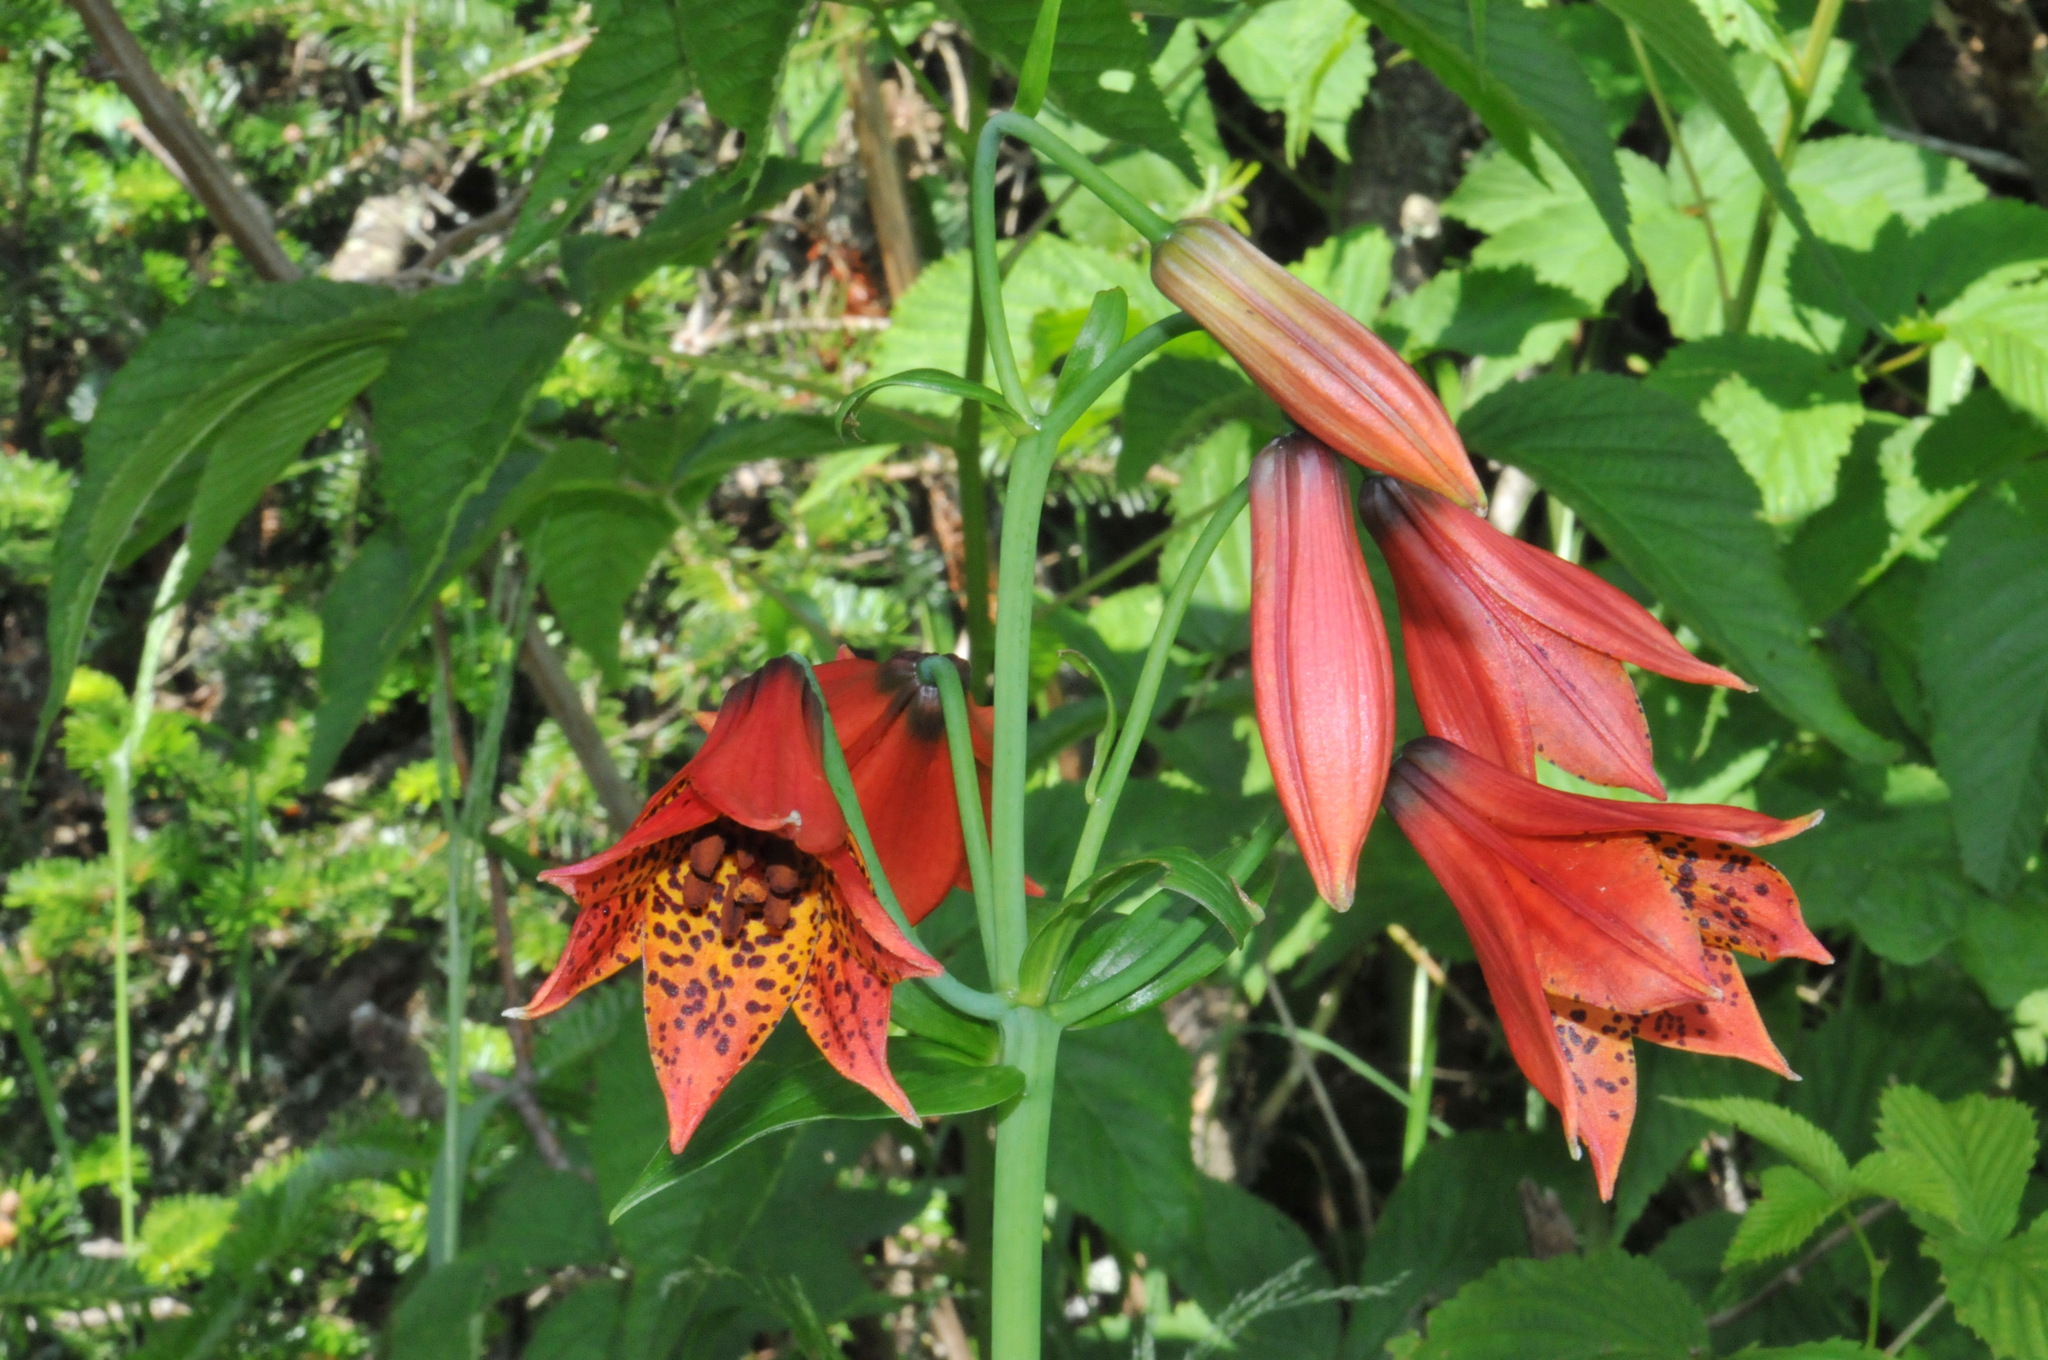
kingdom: Plantae
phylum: Tracheophyta
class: Liliopsida
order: Liliales
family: Liliaceae
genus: Lilium
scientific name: Lilium grayi
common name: Gray's lily
